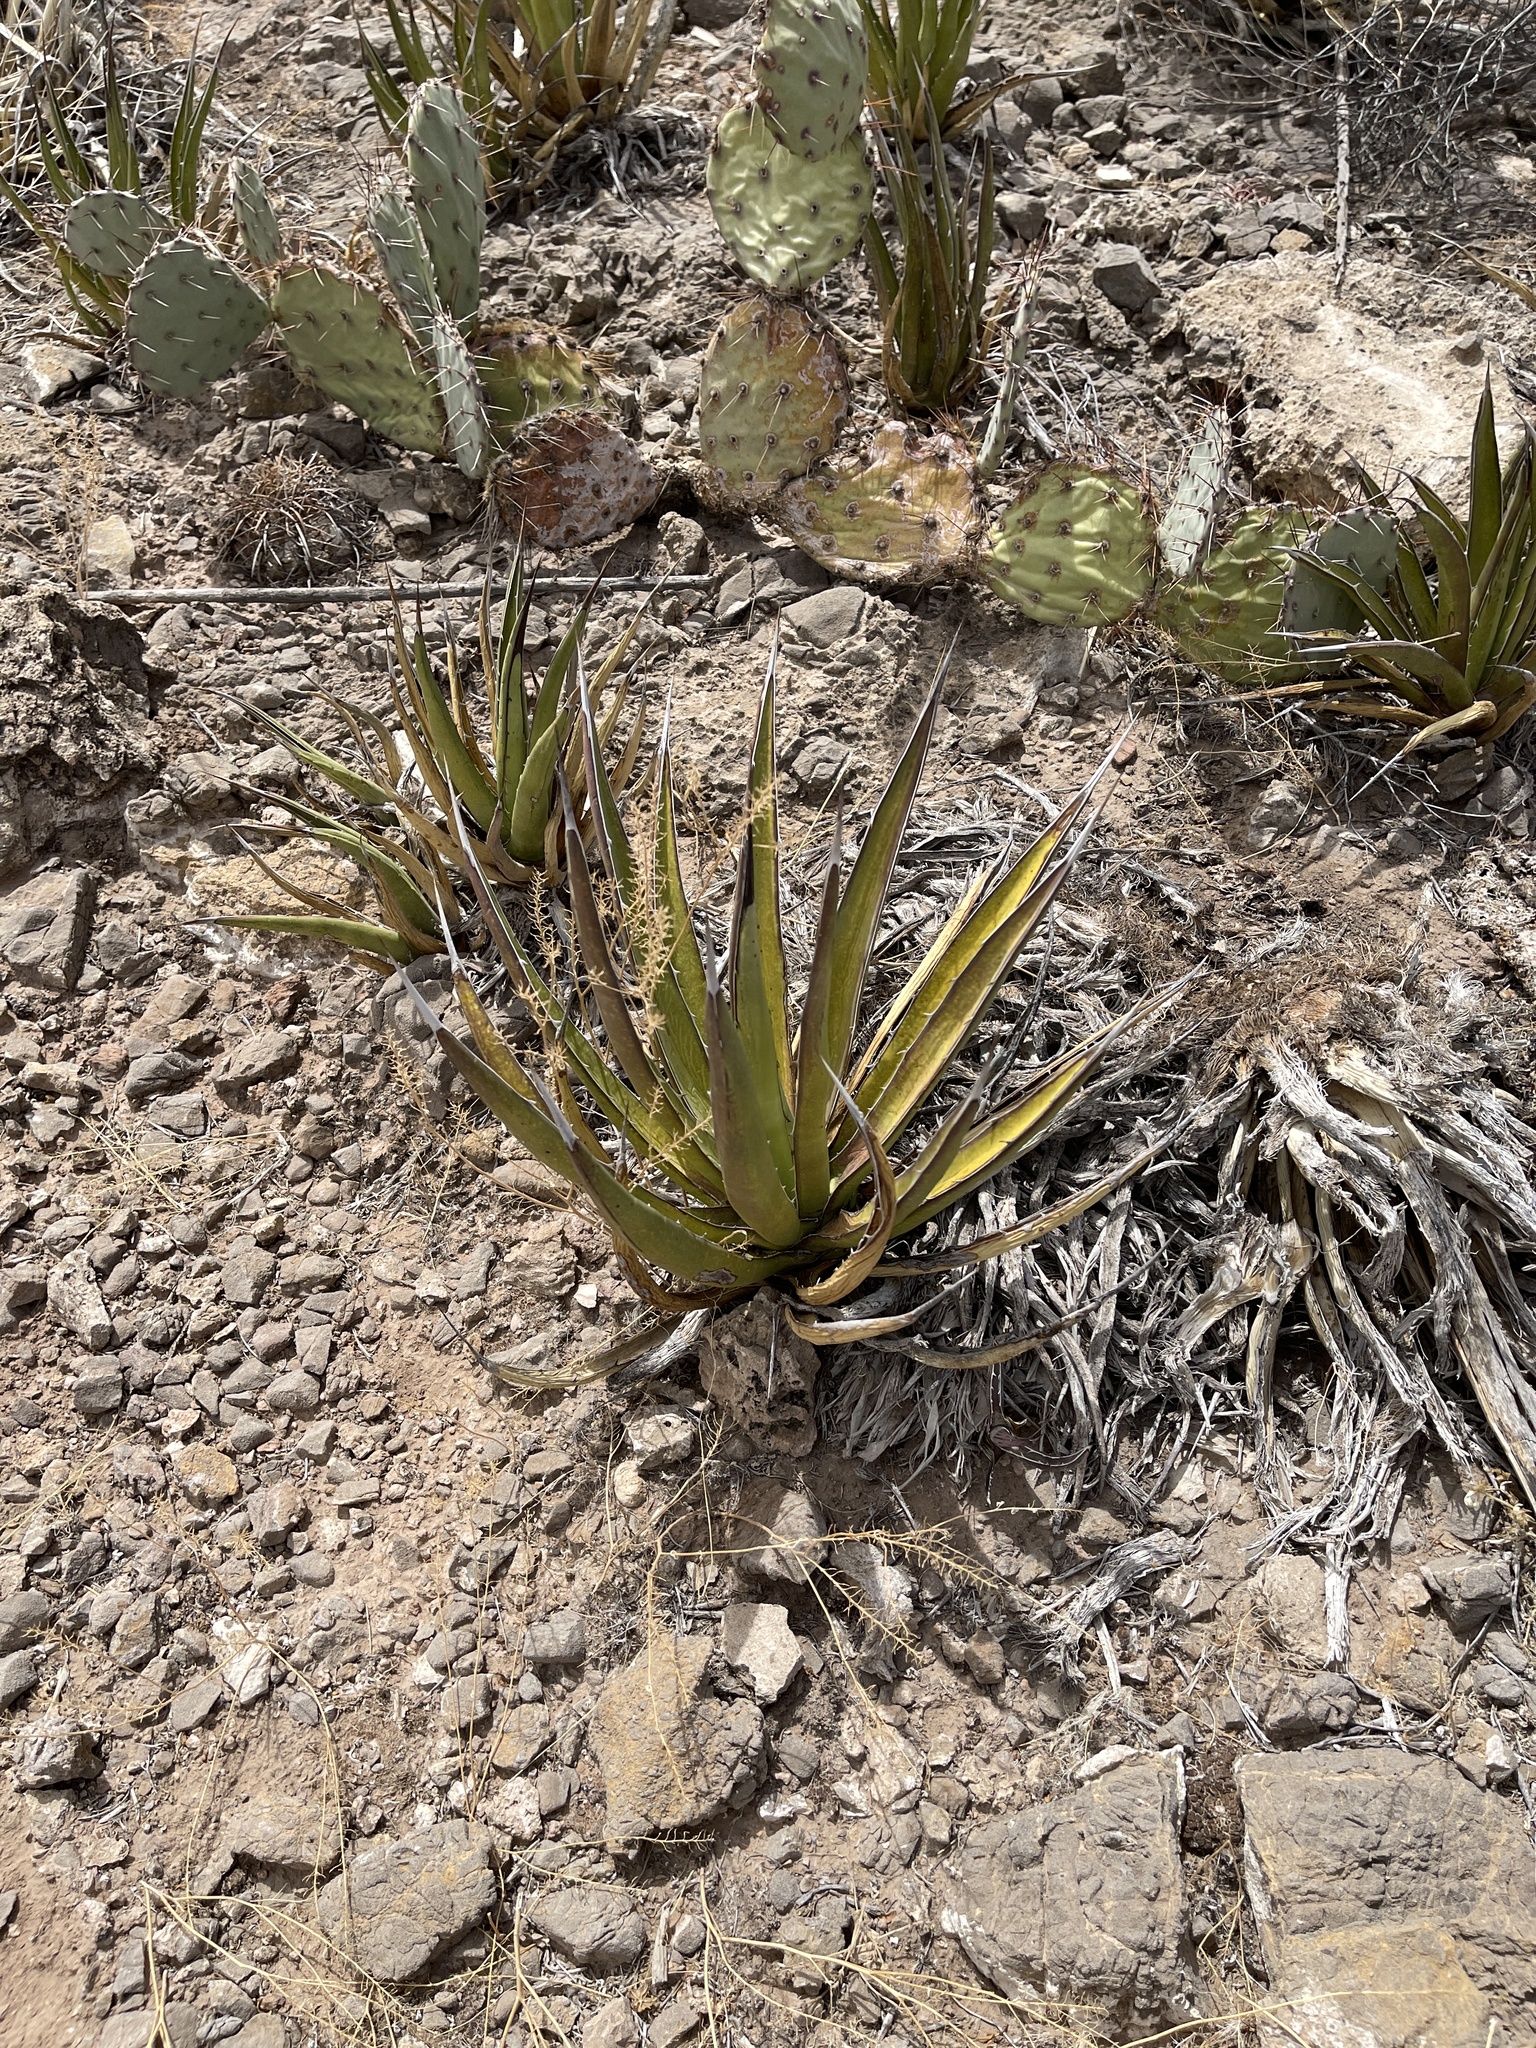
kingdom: Plantae
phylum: Tracheophyta
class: Liliopsida
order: Asparagales
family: Asparagaceae
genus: Agave
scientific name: Agave lechuguilla
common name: Lecheguilla agave
